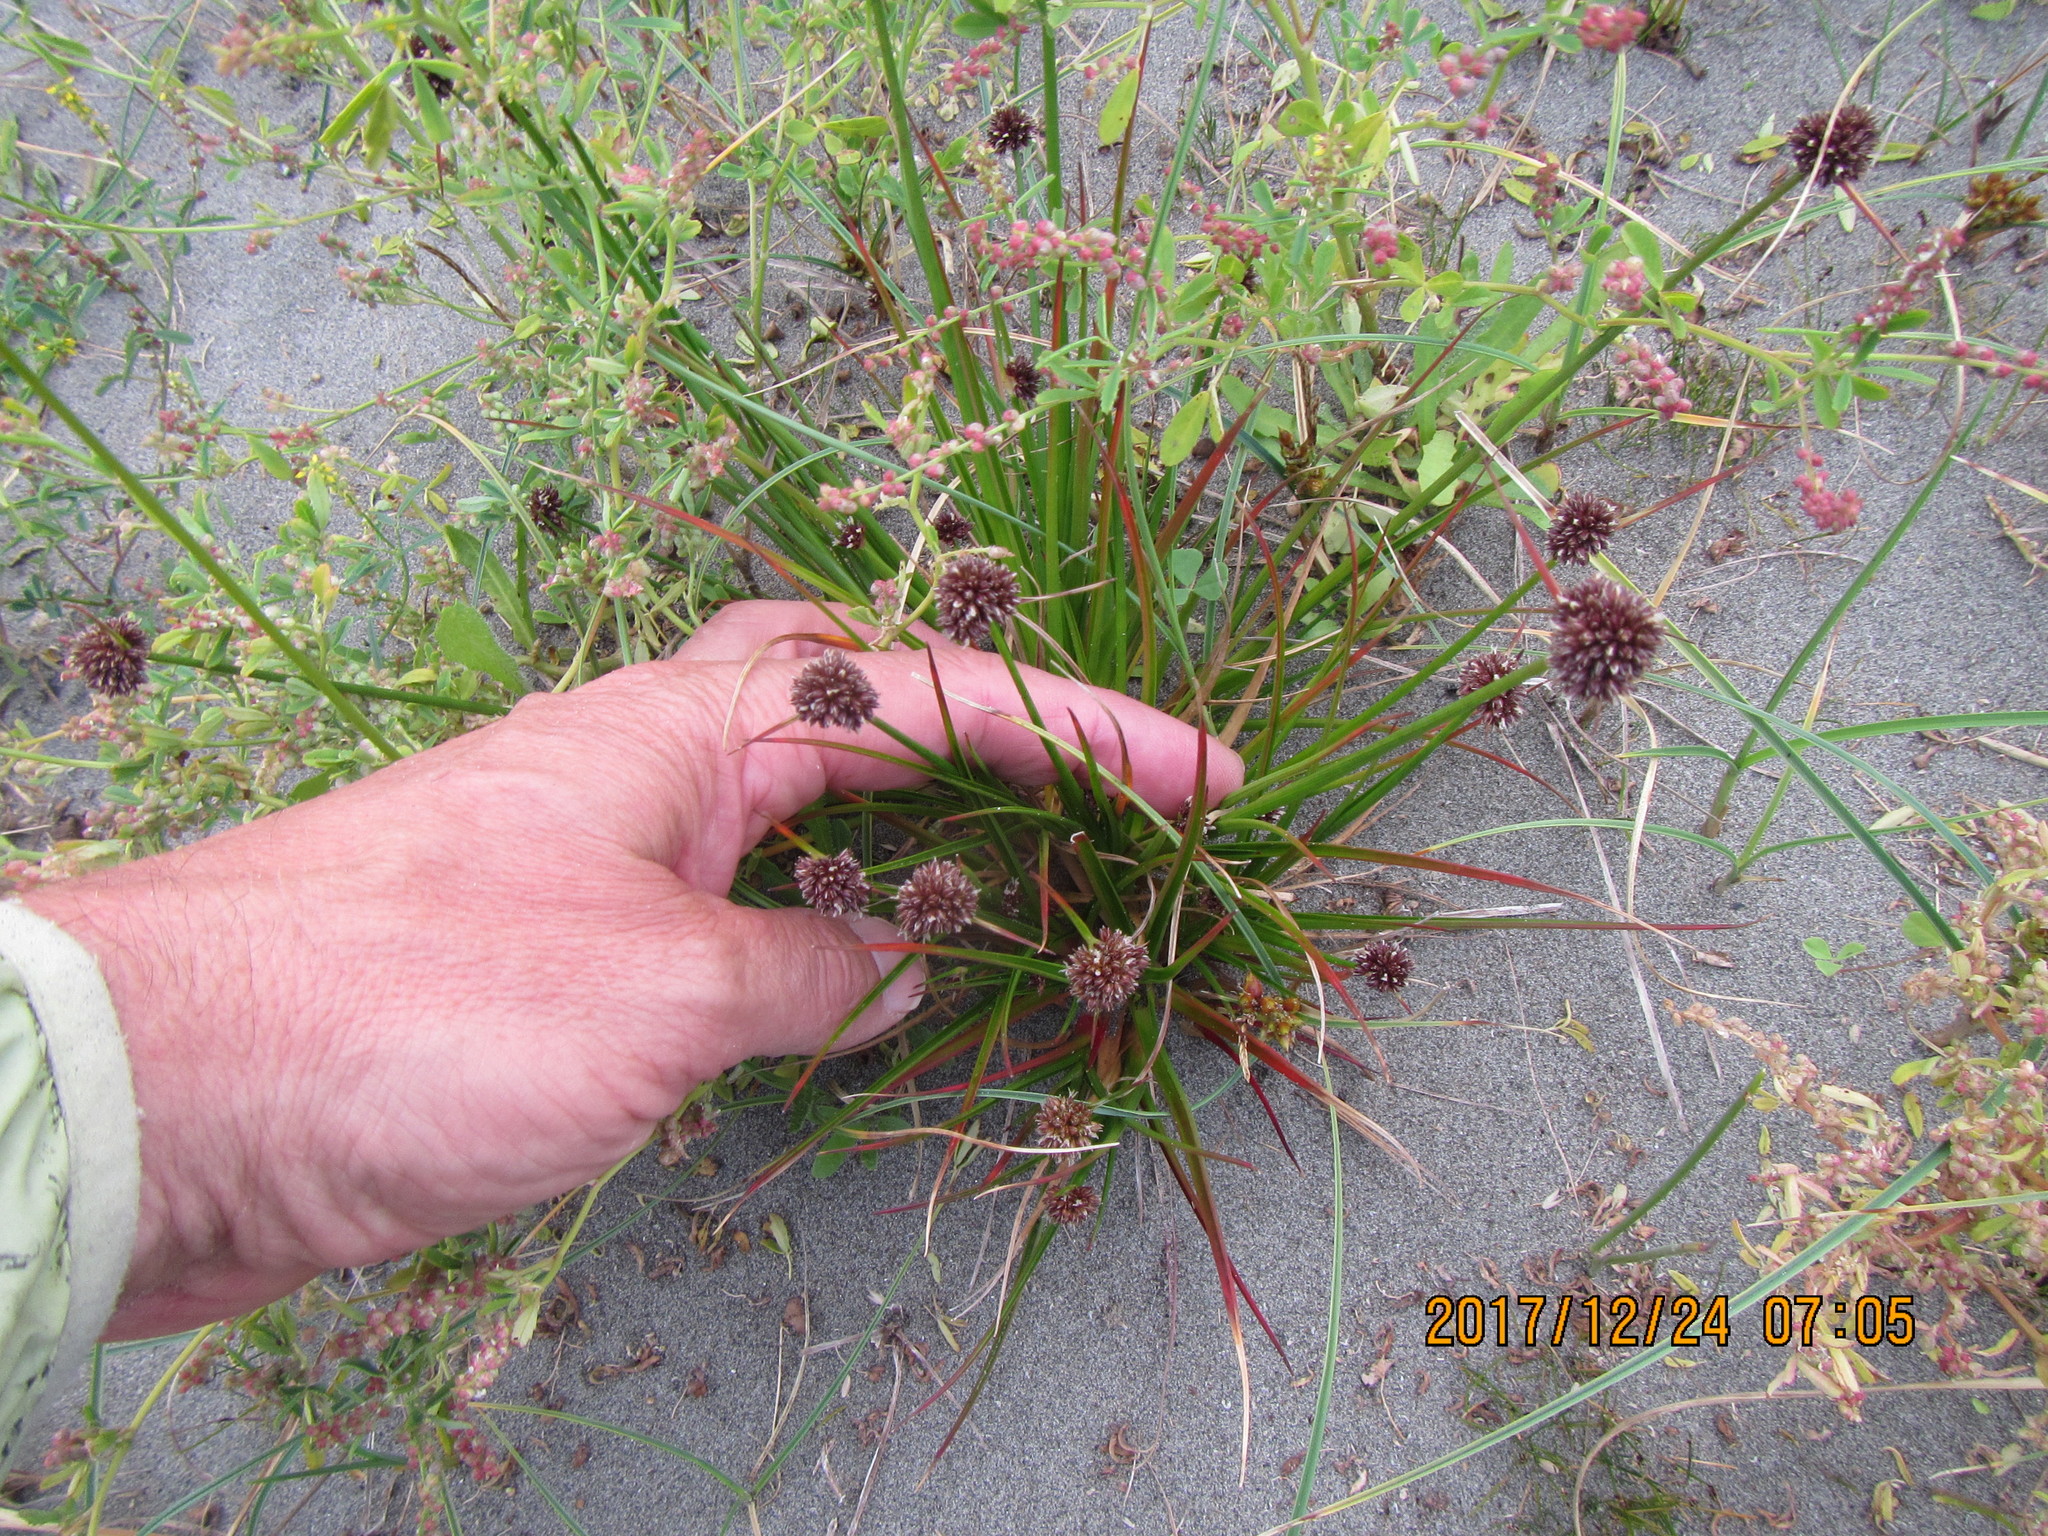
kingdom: Plantae
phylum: Tracheophyta
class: Liliopsida
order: Poales
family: Juncaceae
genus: Juncus
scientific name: Juncus caespiticius
